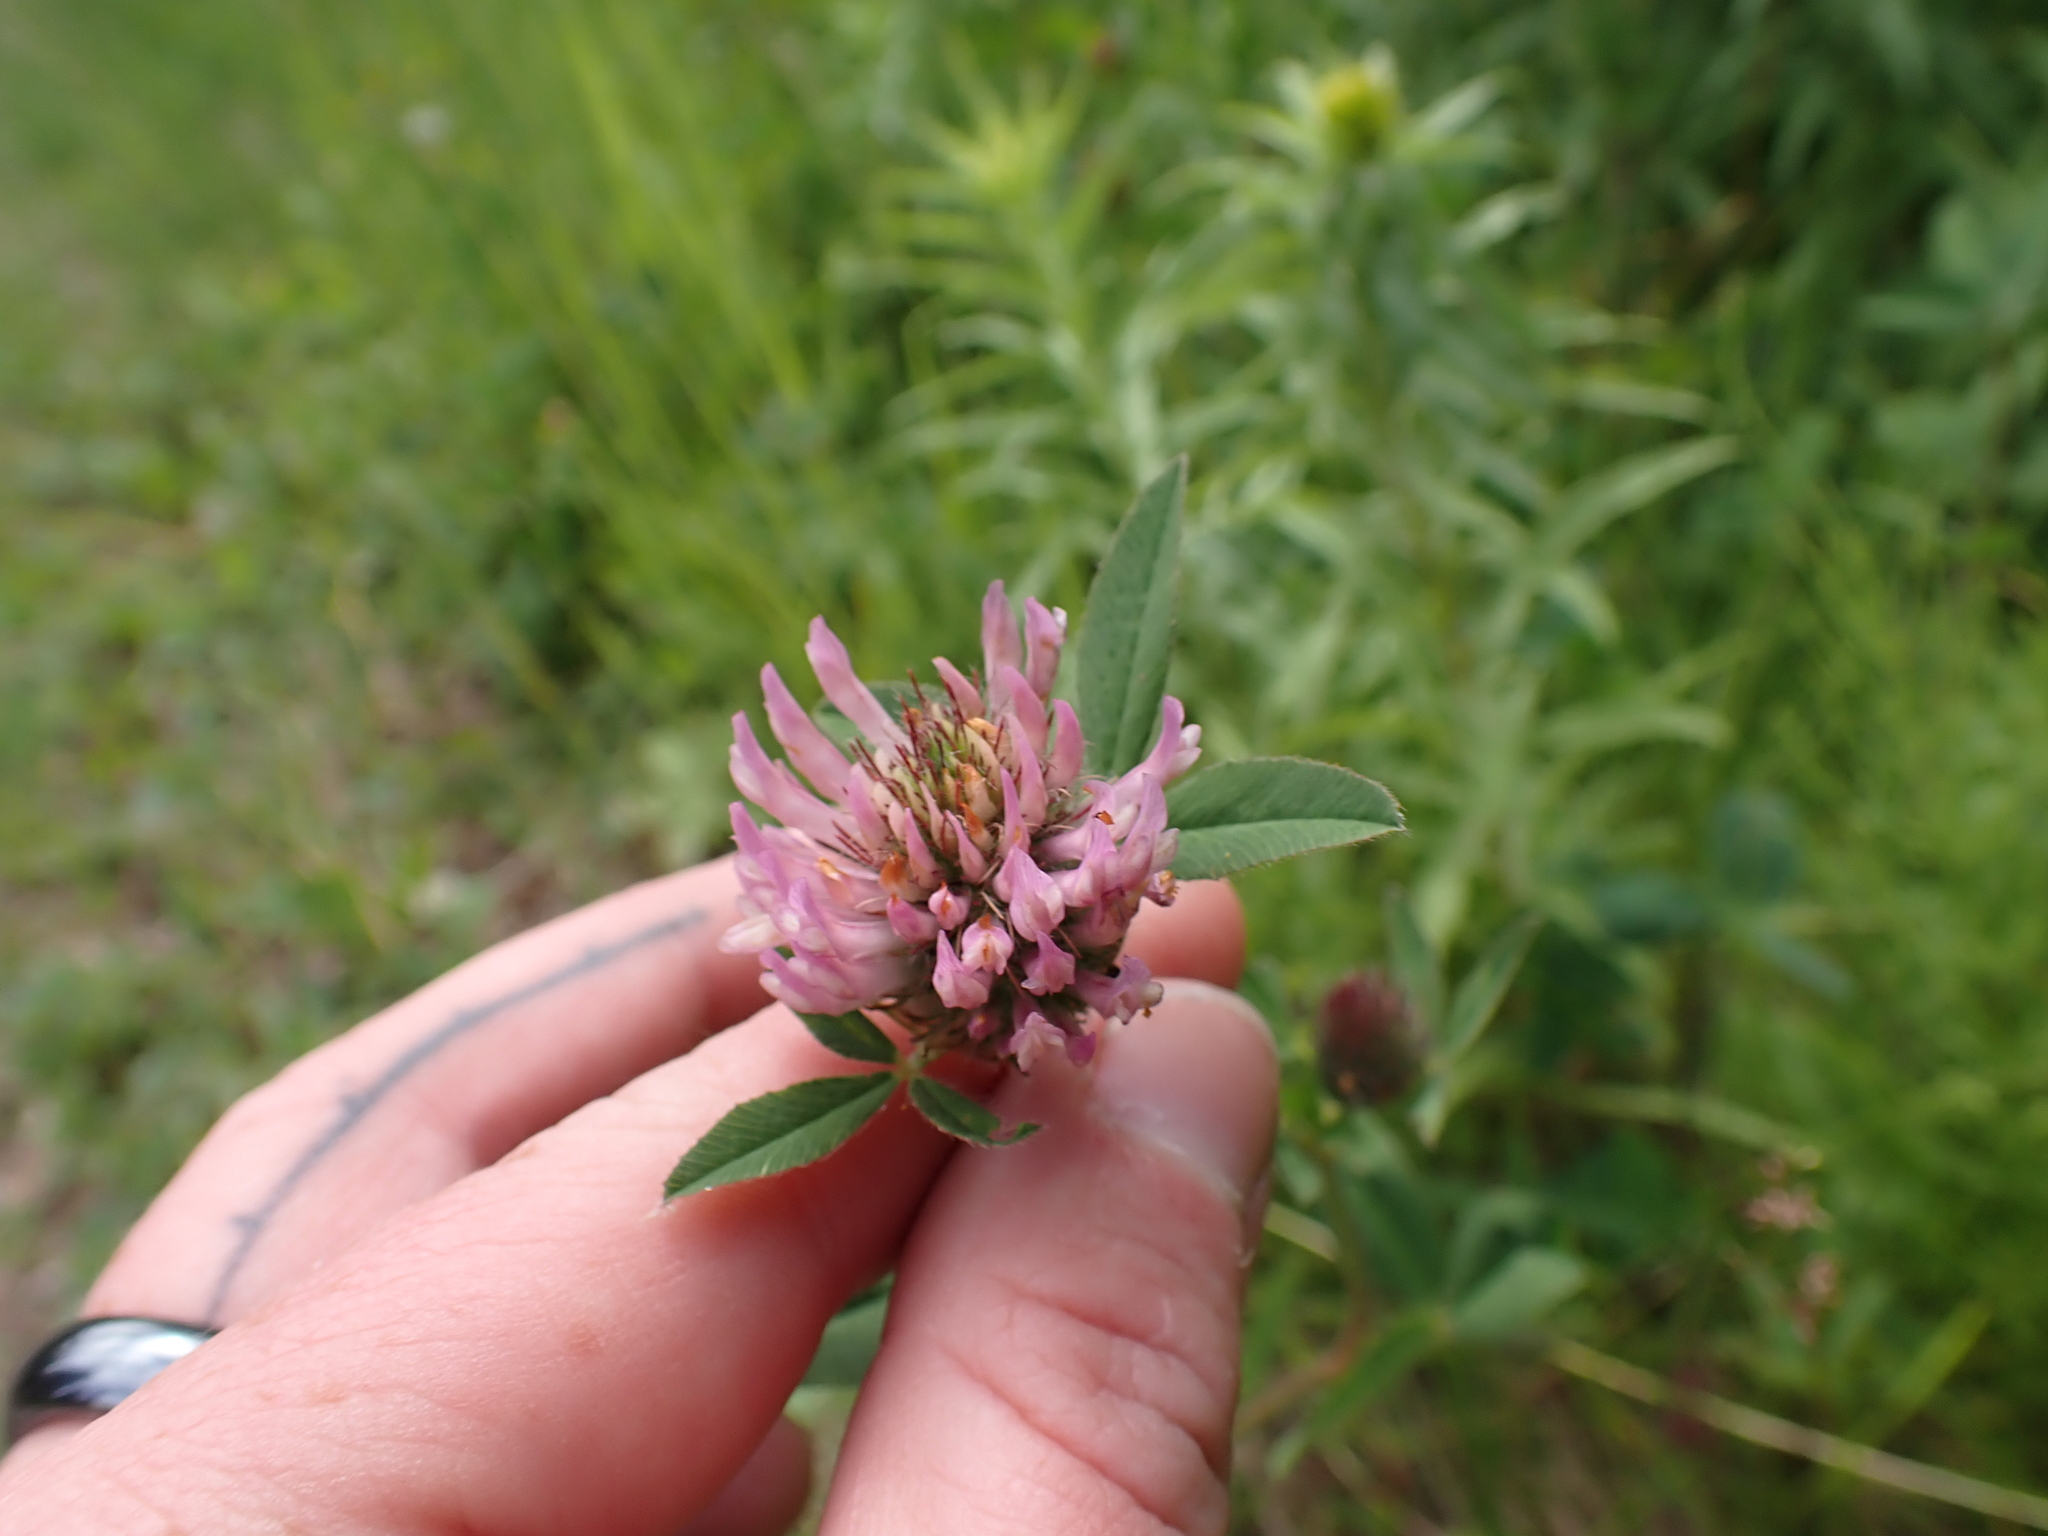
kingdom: Plantae
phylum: Tracheophyta
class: Magnoliopsida
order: Fabales
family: Fabaceae
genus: Trifolium
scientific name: Trifolium pratense
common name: Red clover
